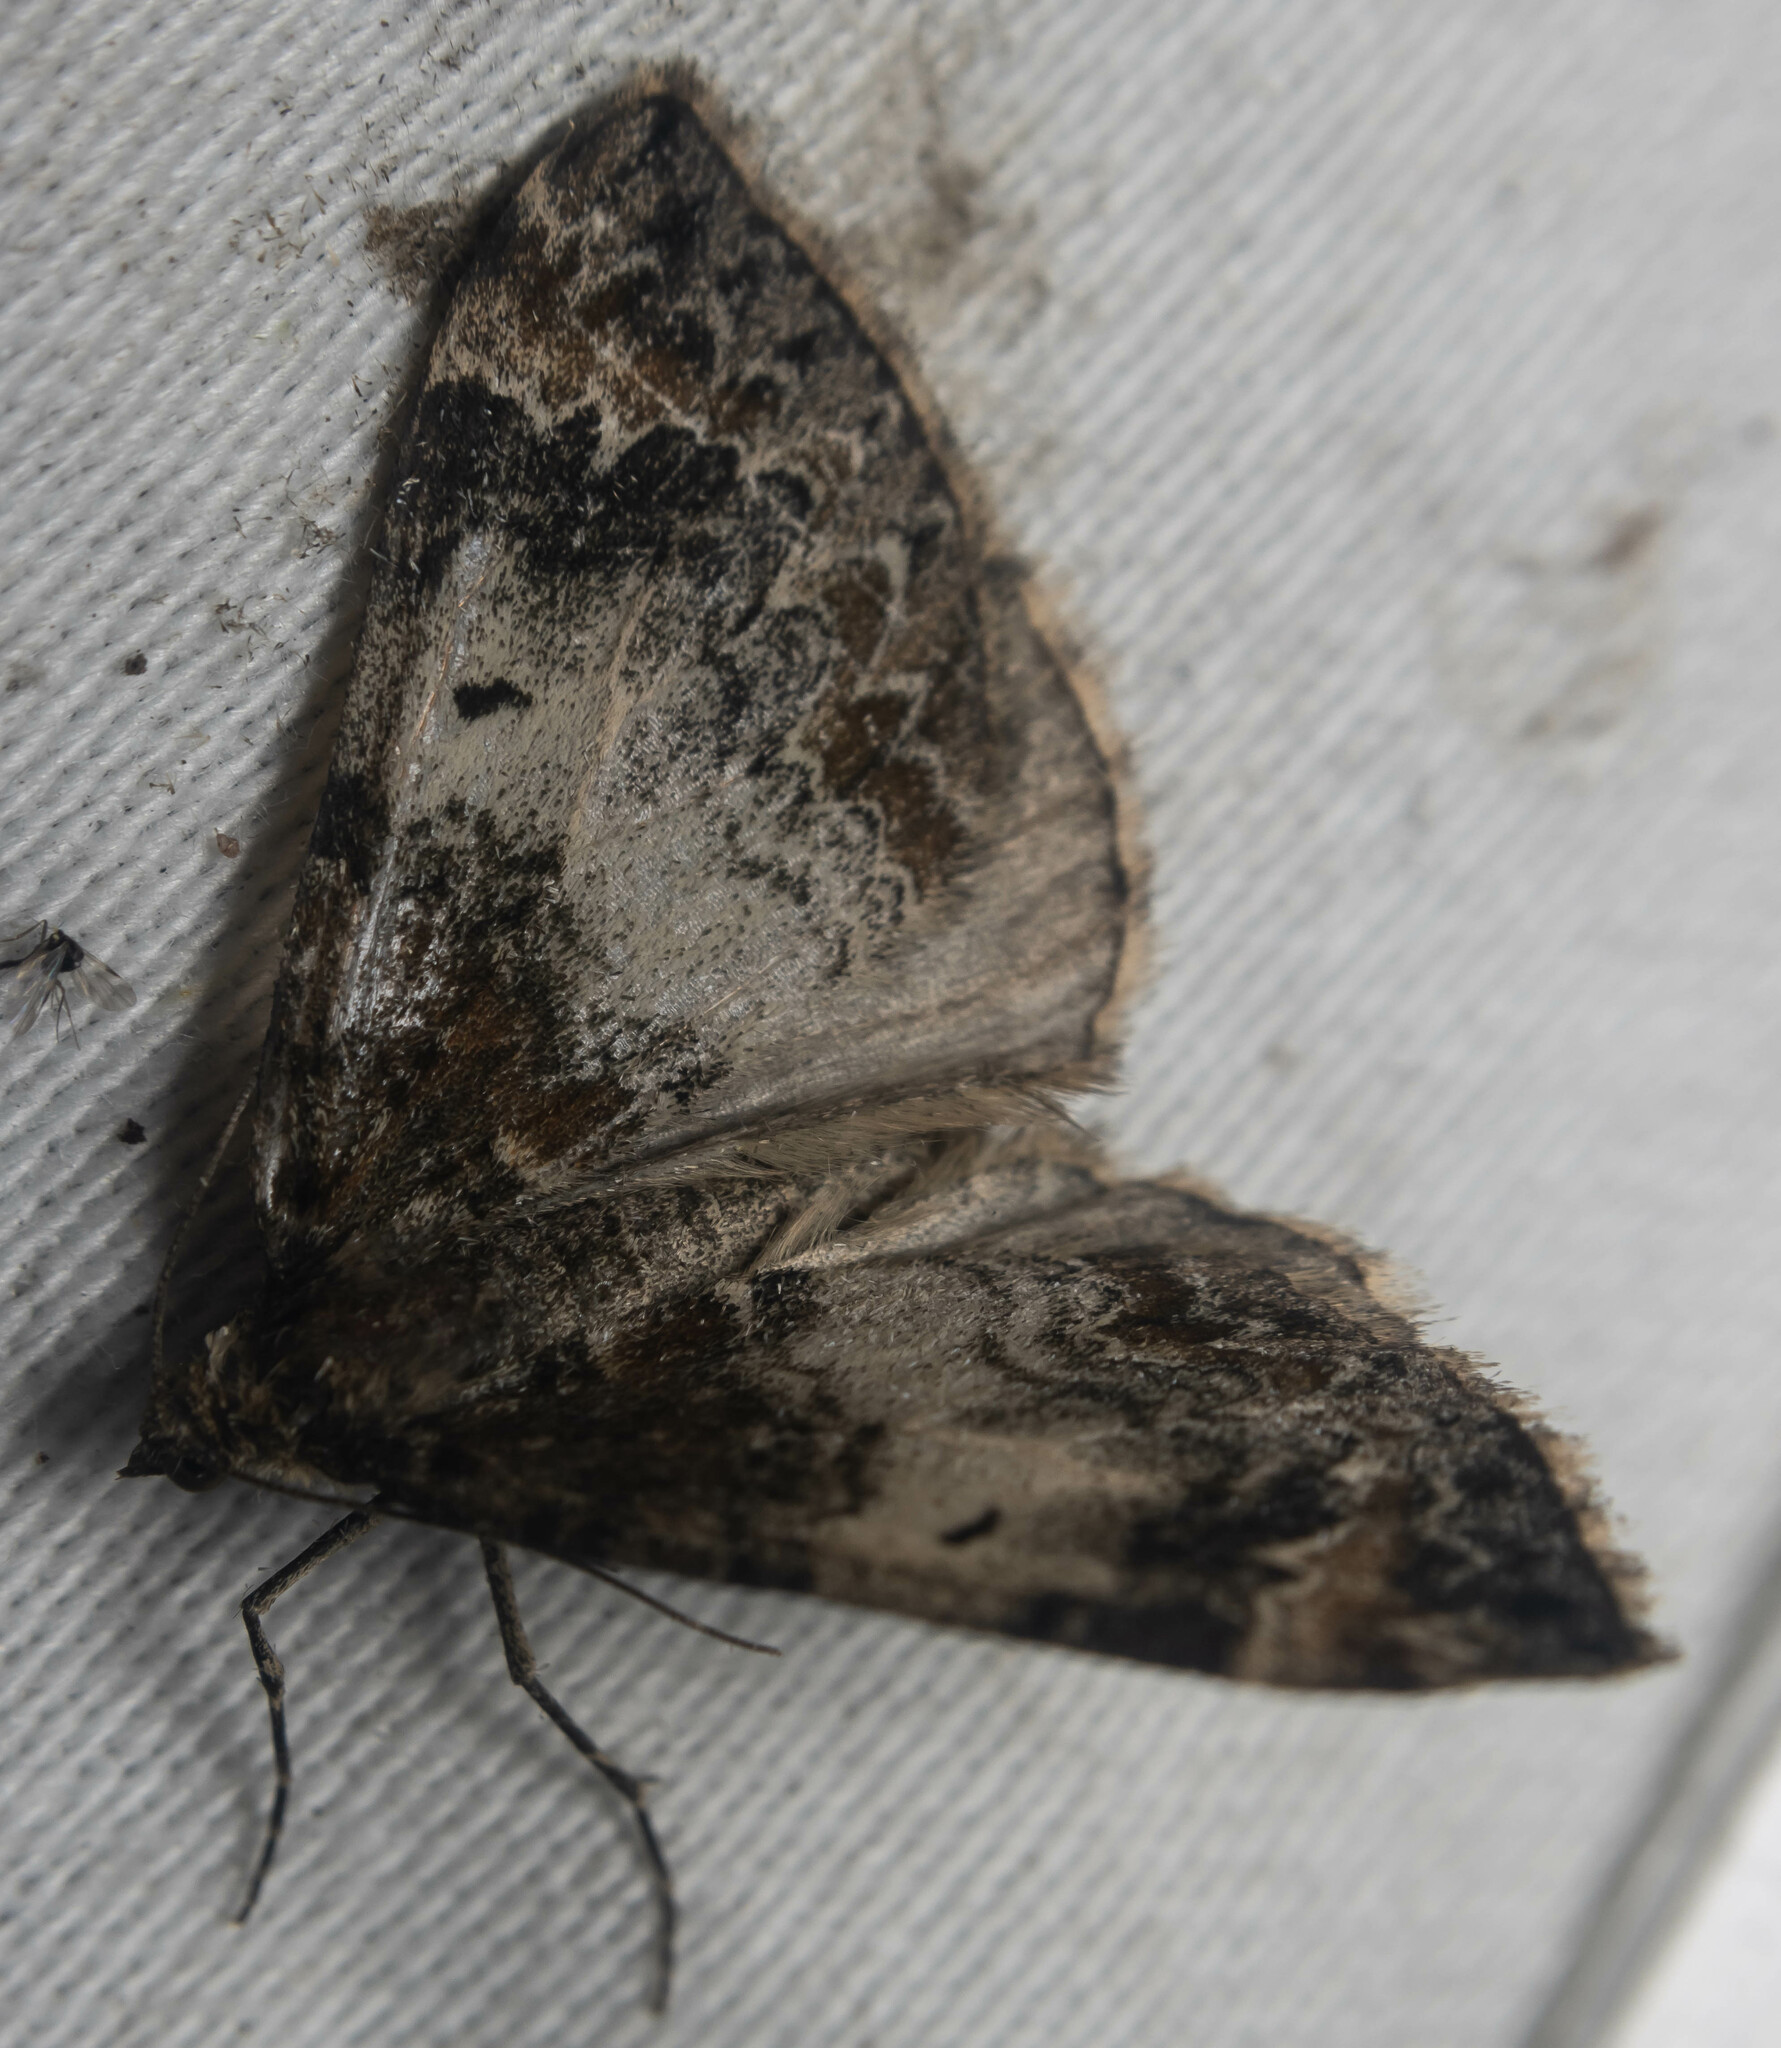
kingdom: Animalia
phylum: Arthropoda
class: Insecta
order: Lepidoptera
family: Geometridae
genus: Dysstroma
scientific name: Dysstroma truncata
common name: Common marbled carpet
